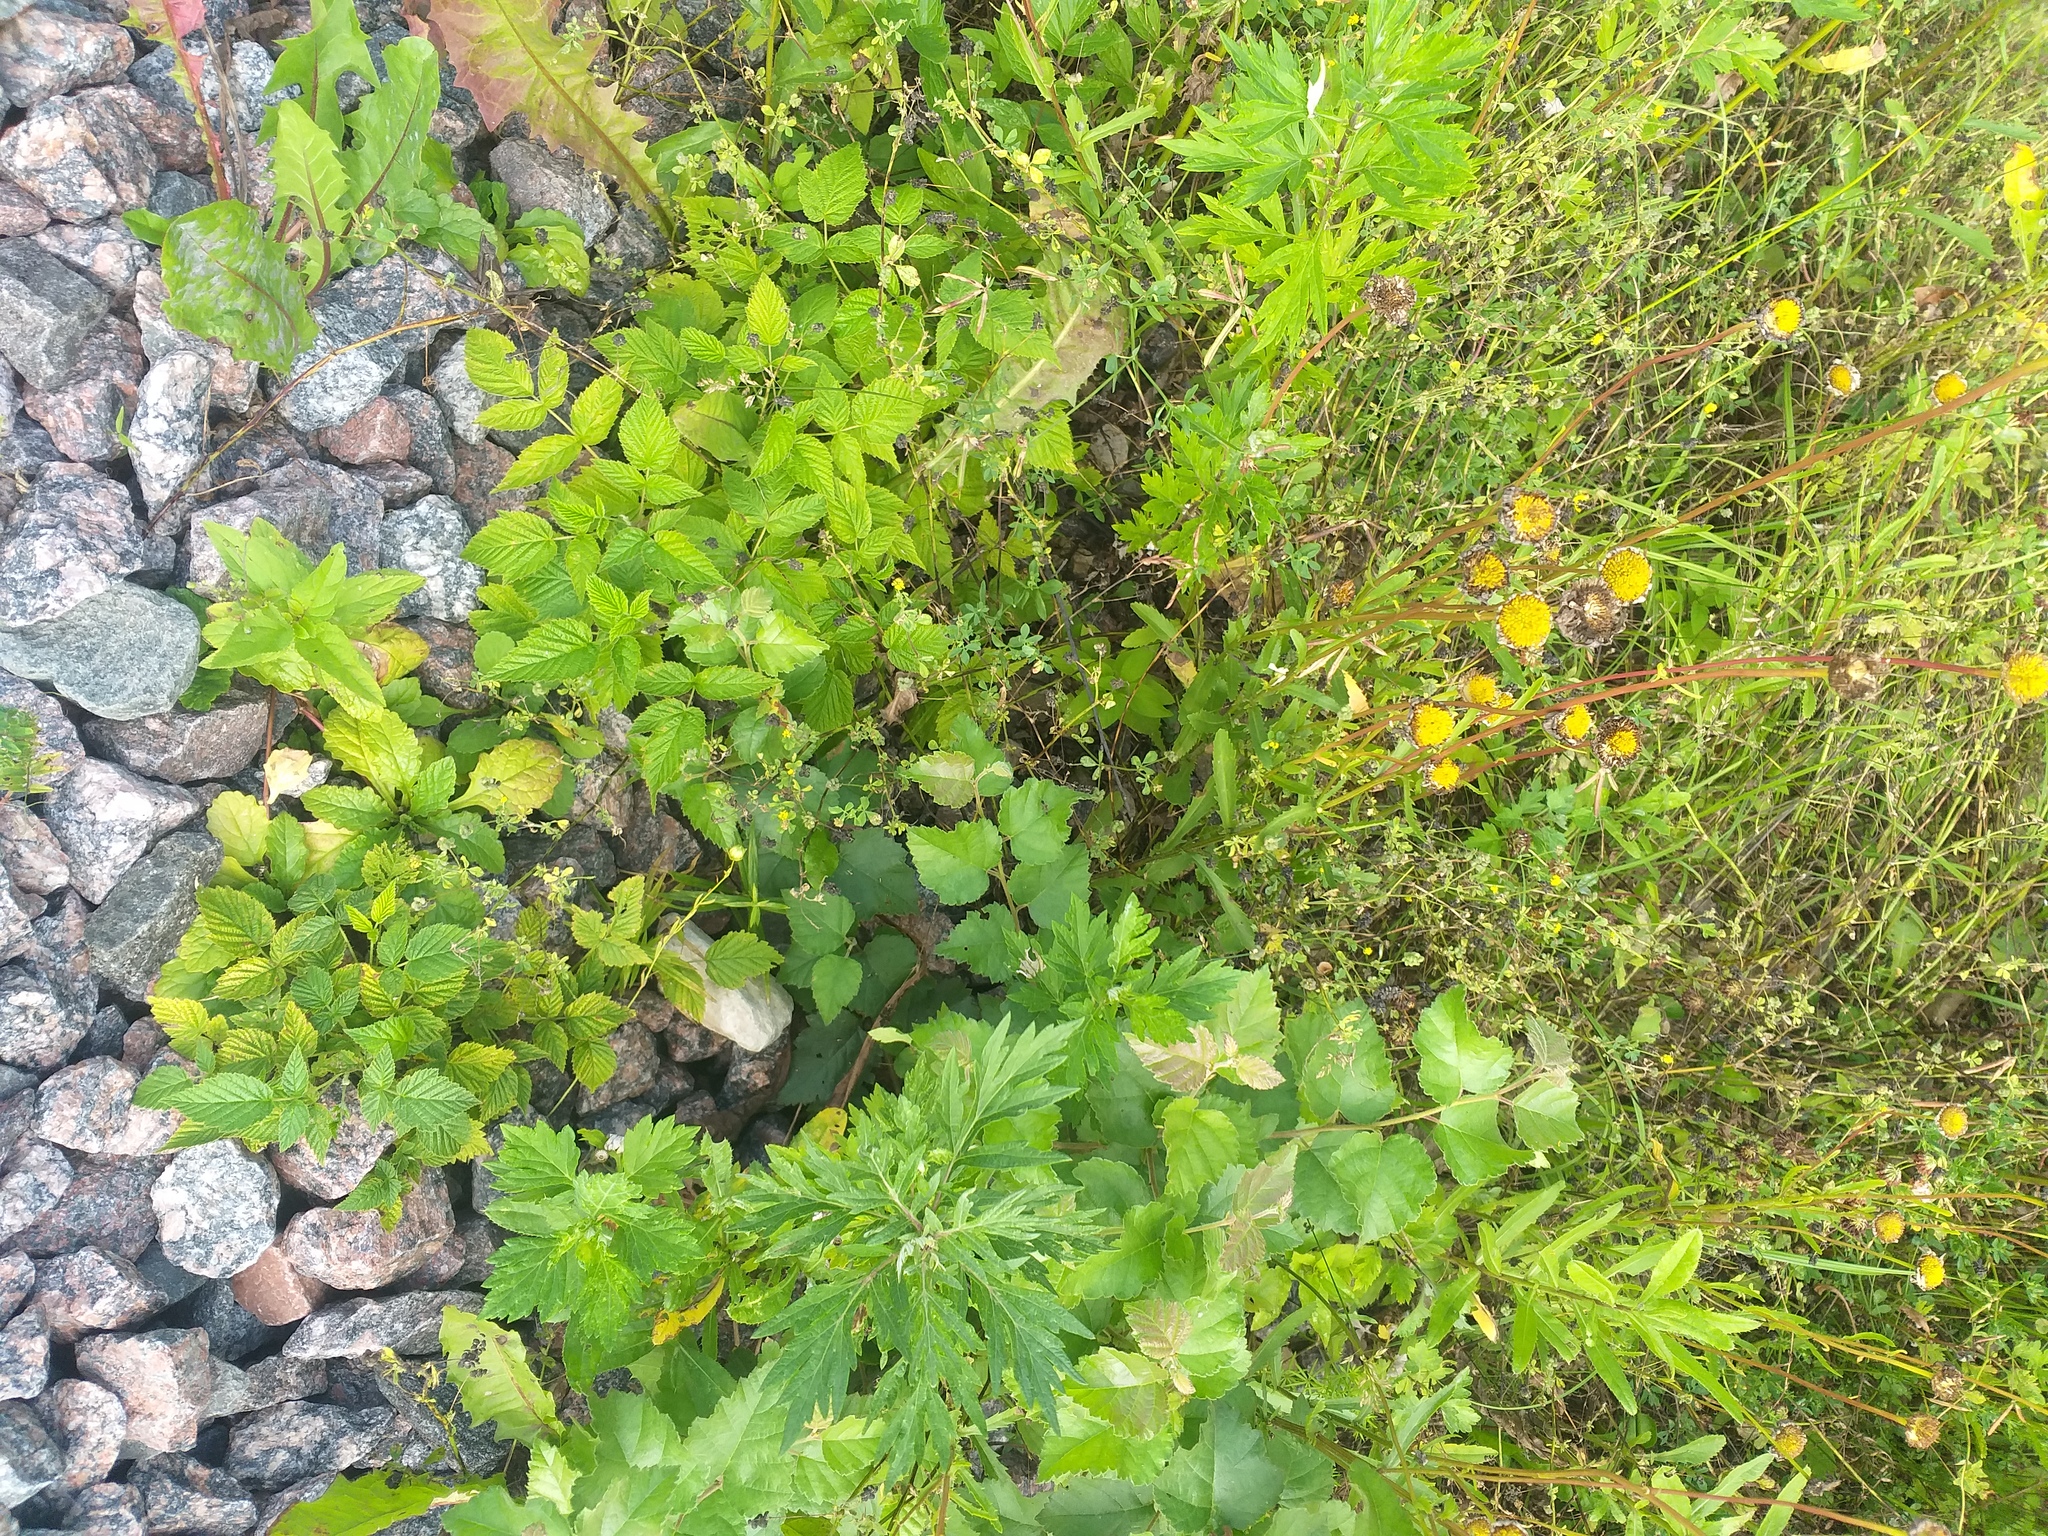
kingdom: Plantae
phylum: Tracheophyta
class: Magnoliopsida
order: Fabales
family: Fabaceae
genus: Medicago
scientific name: Medicago lupulina
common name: Black medick
